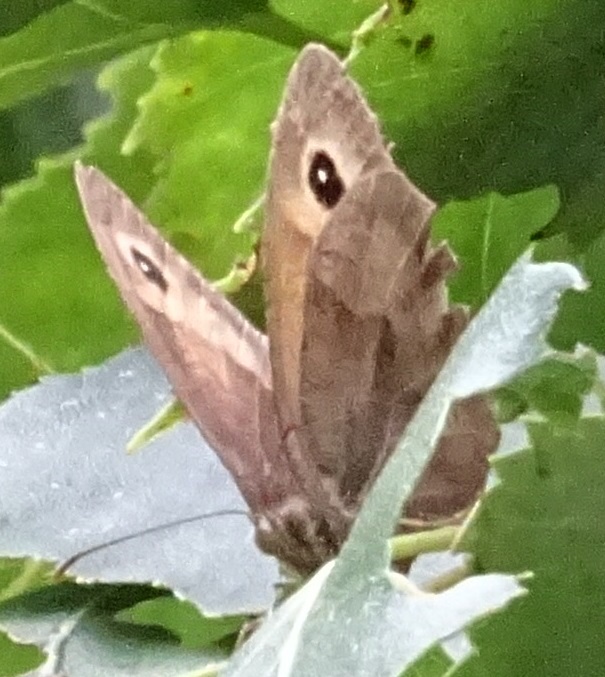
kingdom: Animalia
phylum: Arthropoda
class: Insecta
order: Lepidoptera
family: Nymphalidae
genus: Maniola
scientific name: Maniola jurtina
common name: Meadow brown
